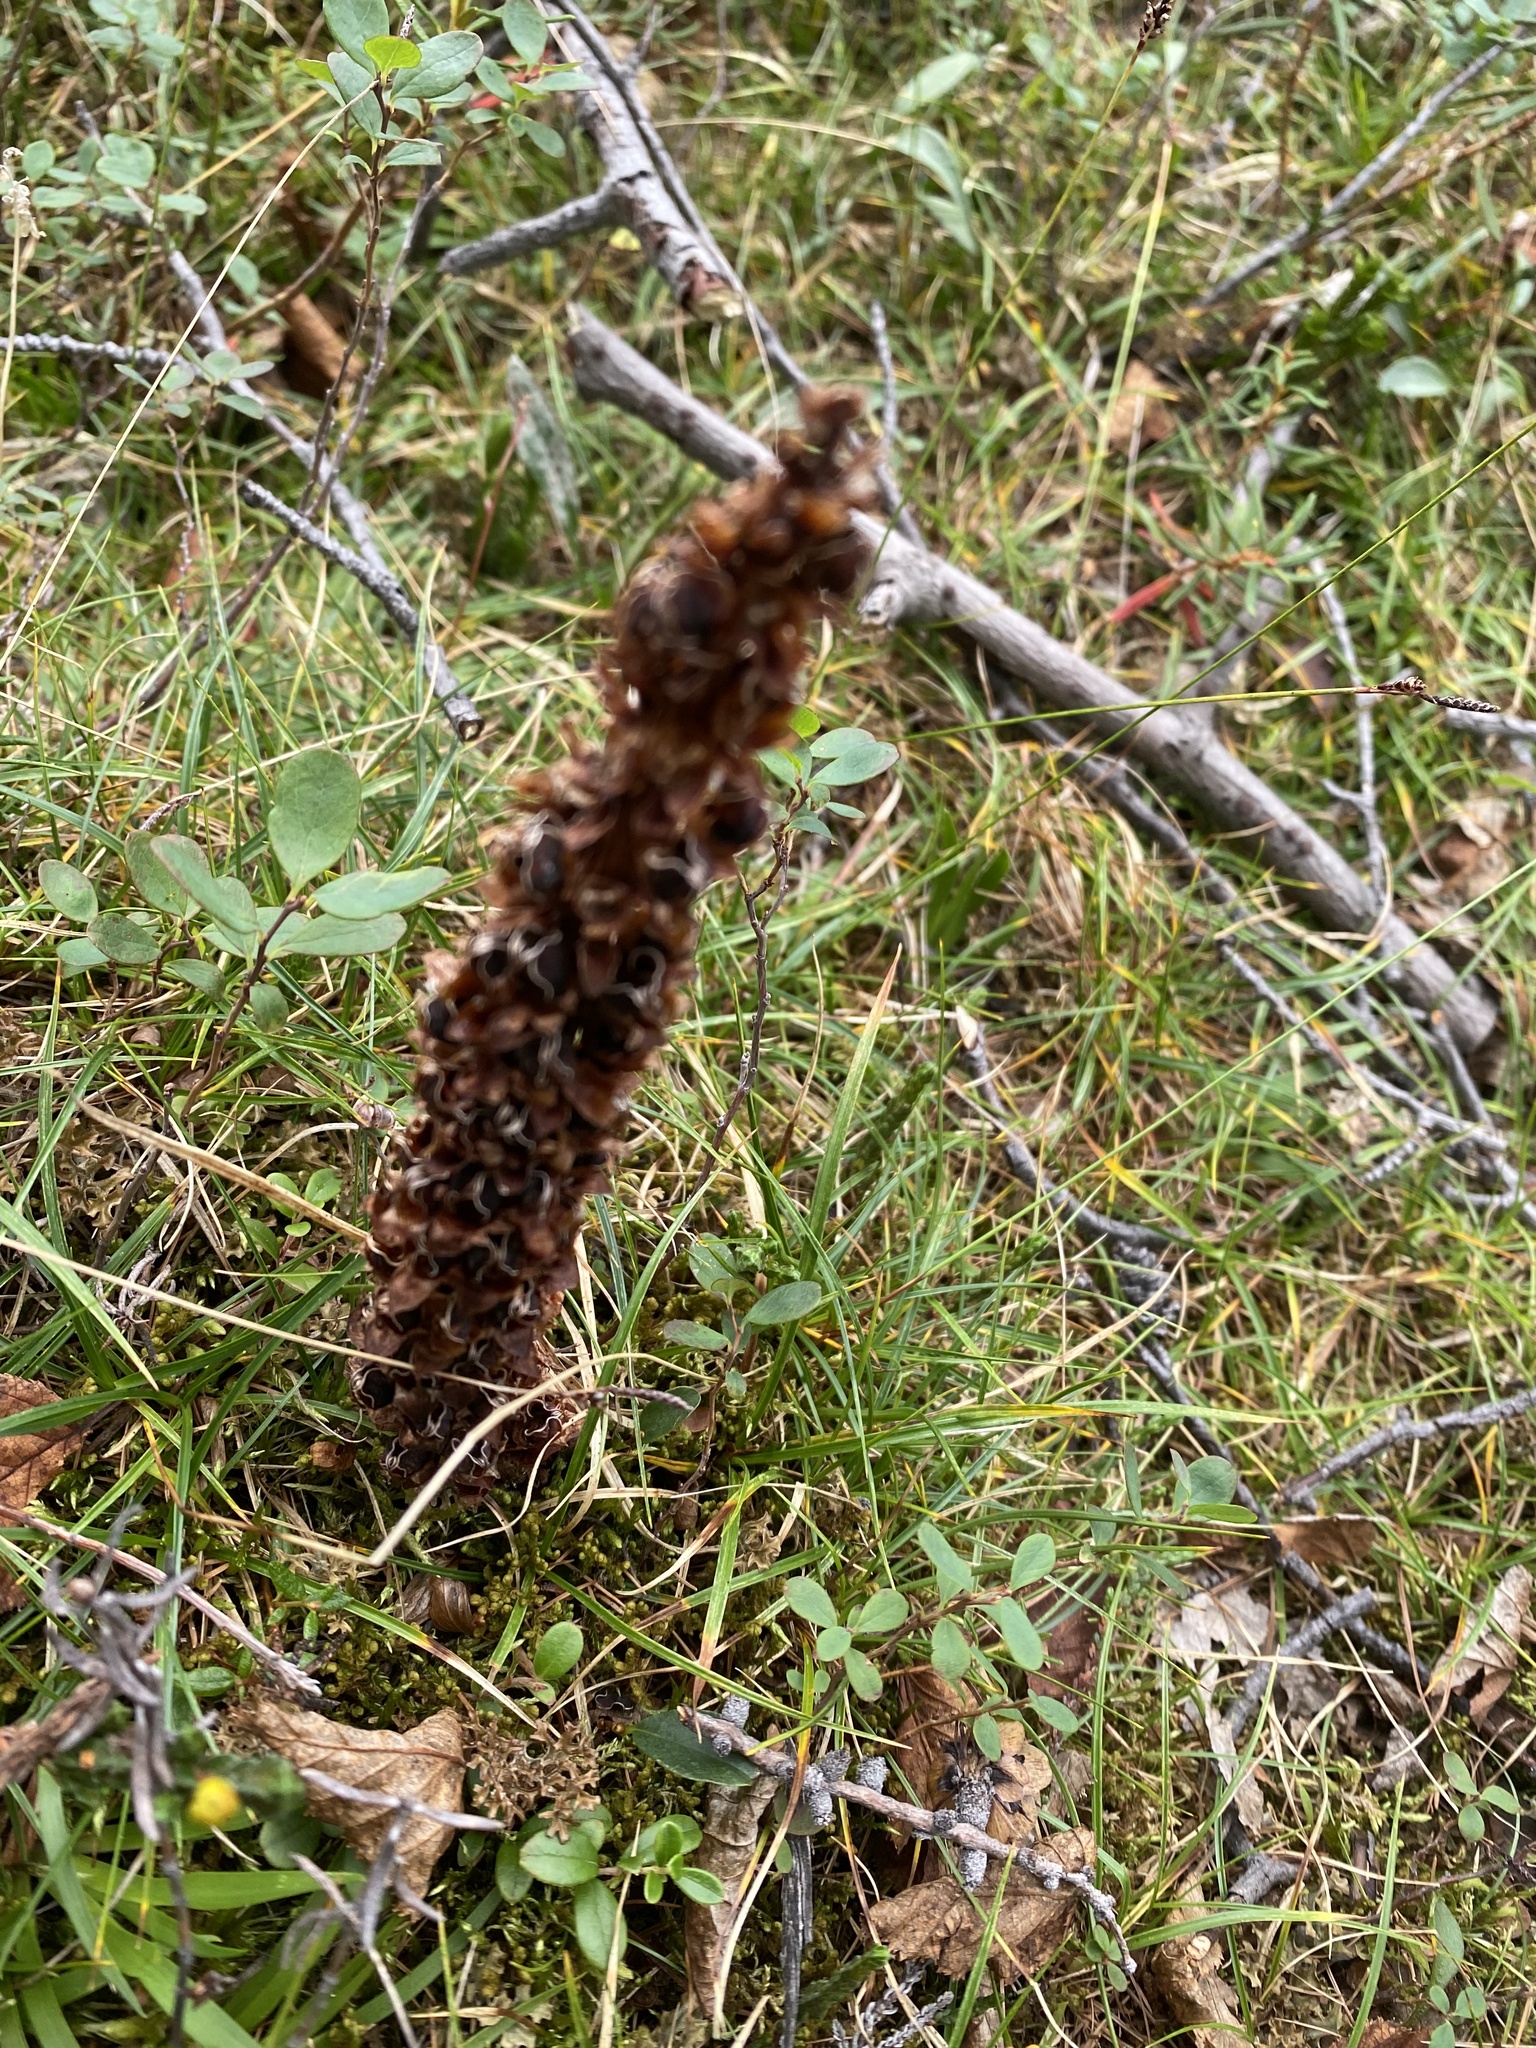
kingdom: Plantae
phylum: Tracheophyta
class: Magnoliopsida
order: Lamiales
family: Orobanchaceae
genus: Boschniakia
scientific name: Boschniakia rossica
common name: Poque
